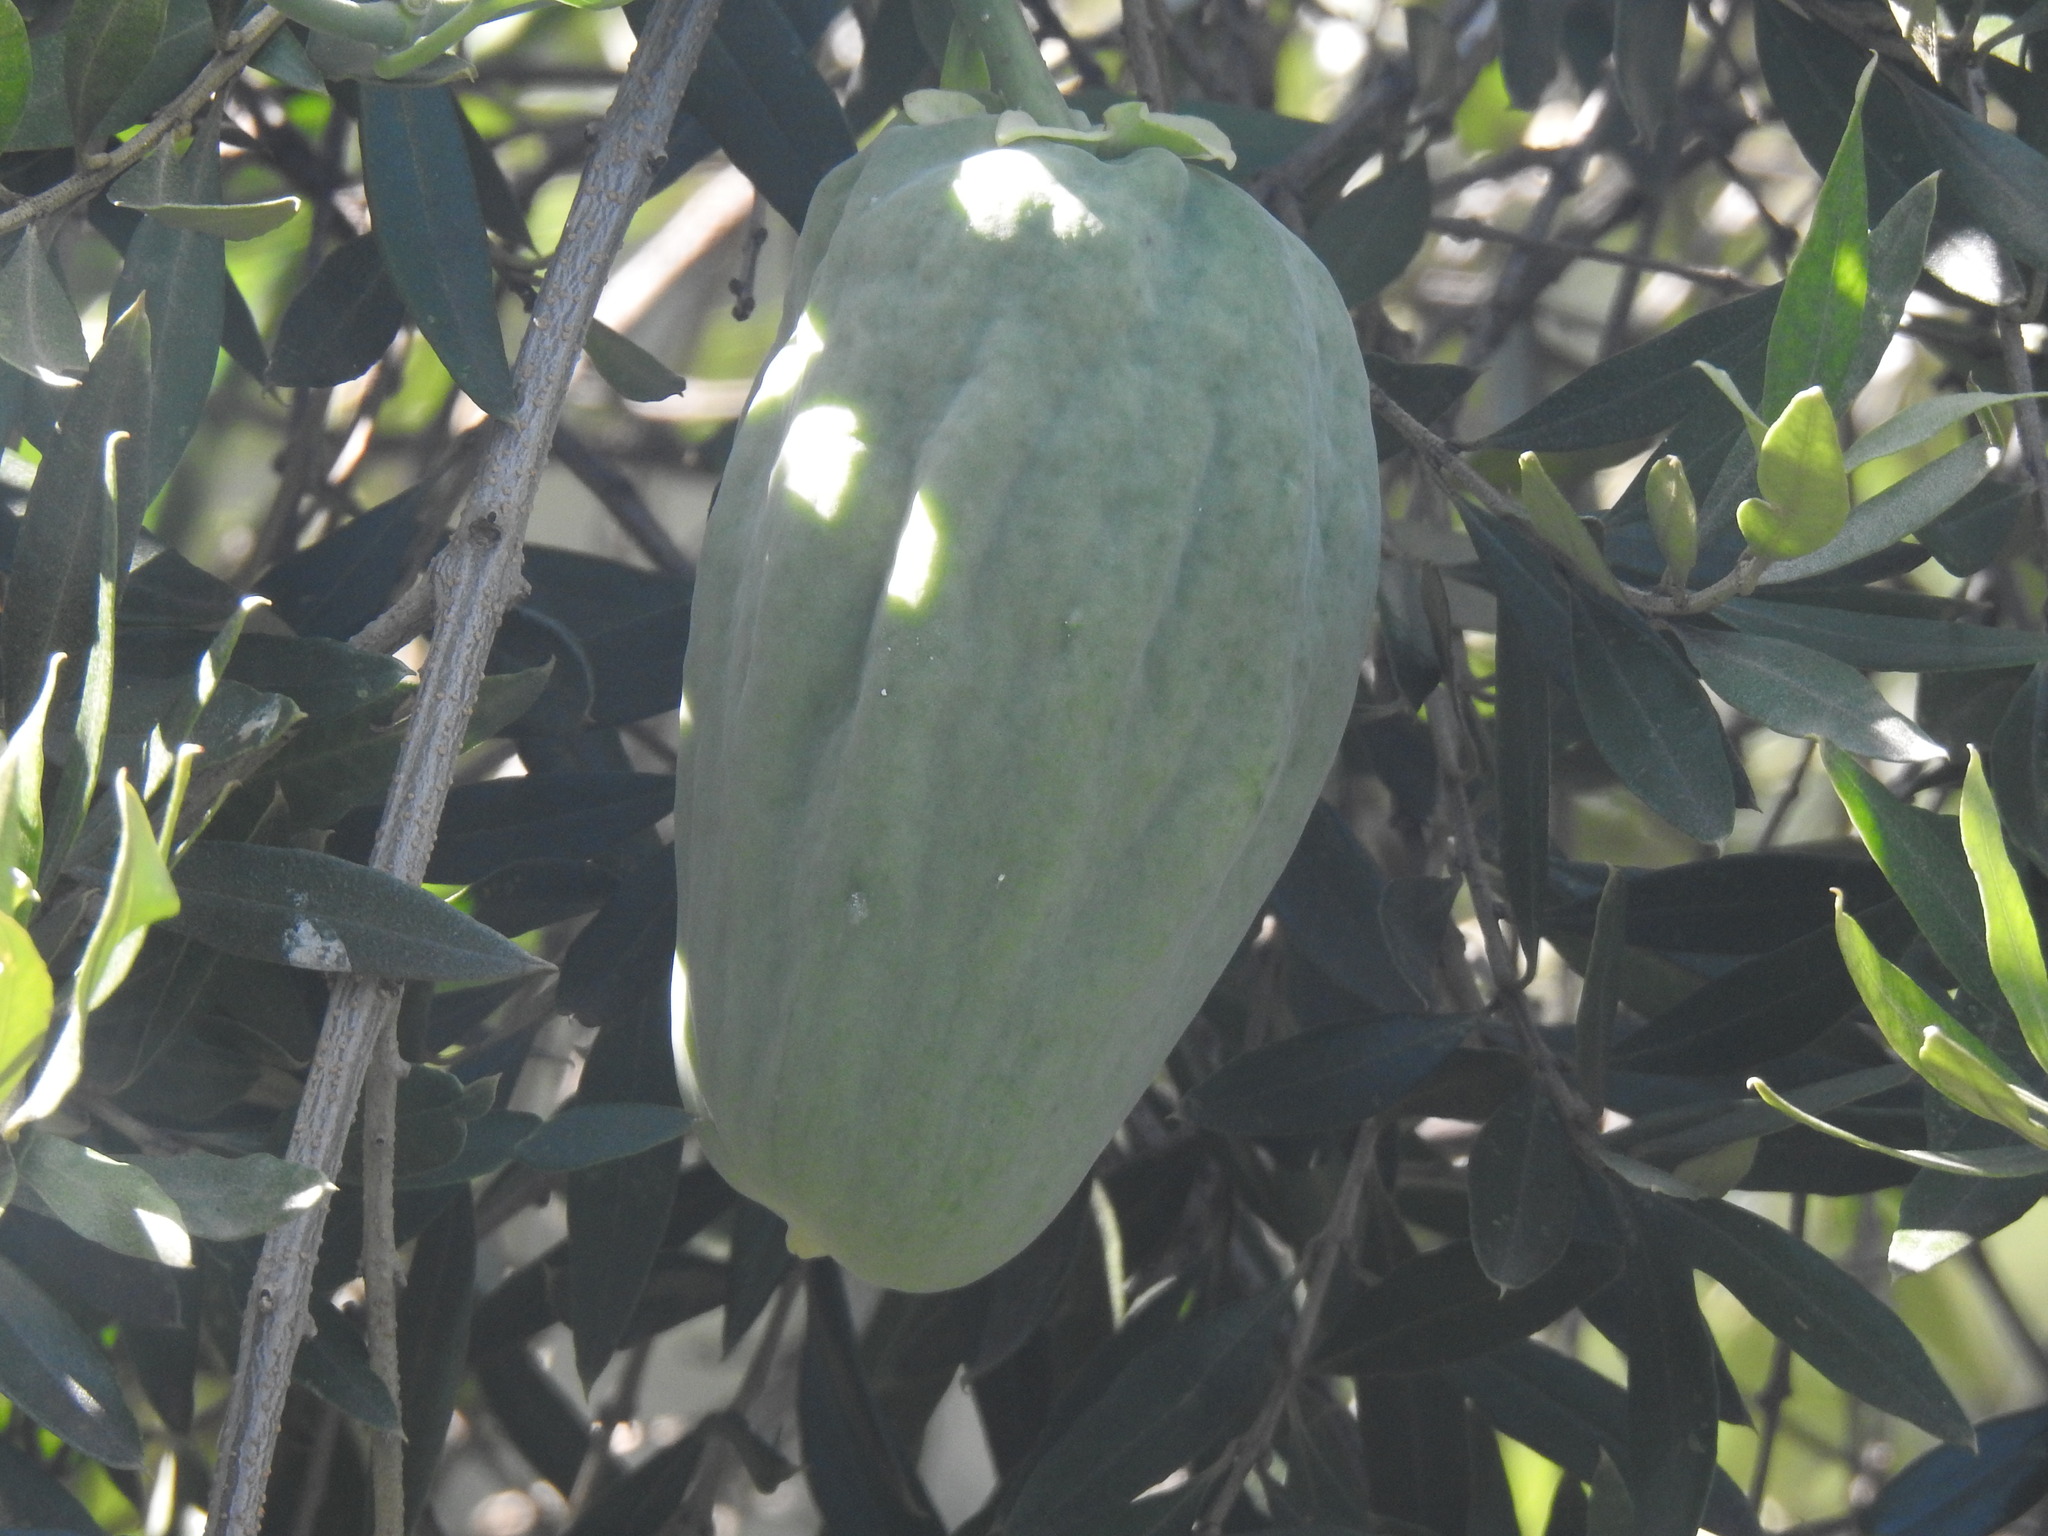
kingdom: Plantae
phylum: Tracheophyta
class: Magnoliopsida
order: Gentianales
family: Apocynaceae
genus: Araujia
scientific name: Araujia sericifera
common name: White bladderflower
